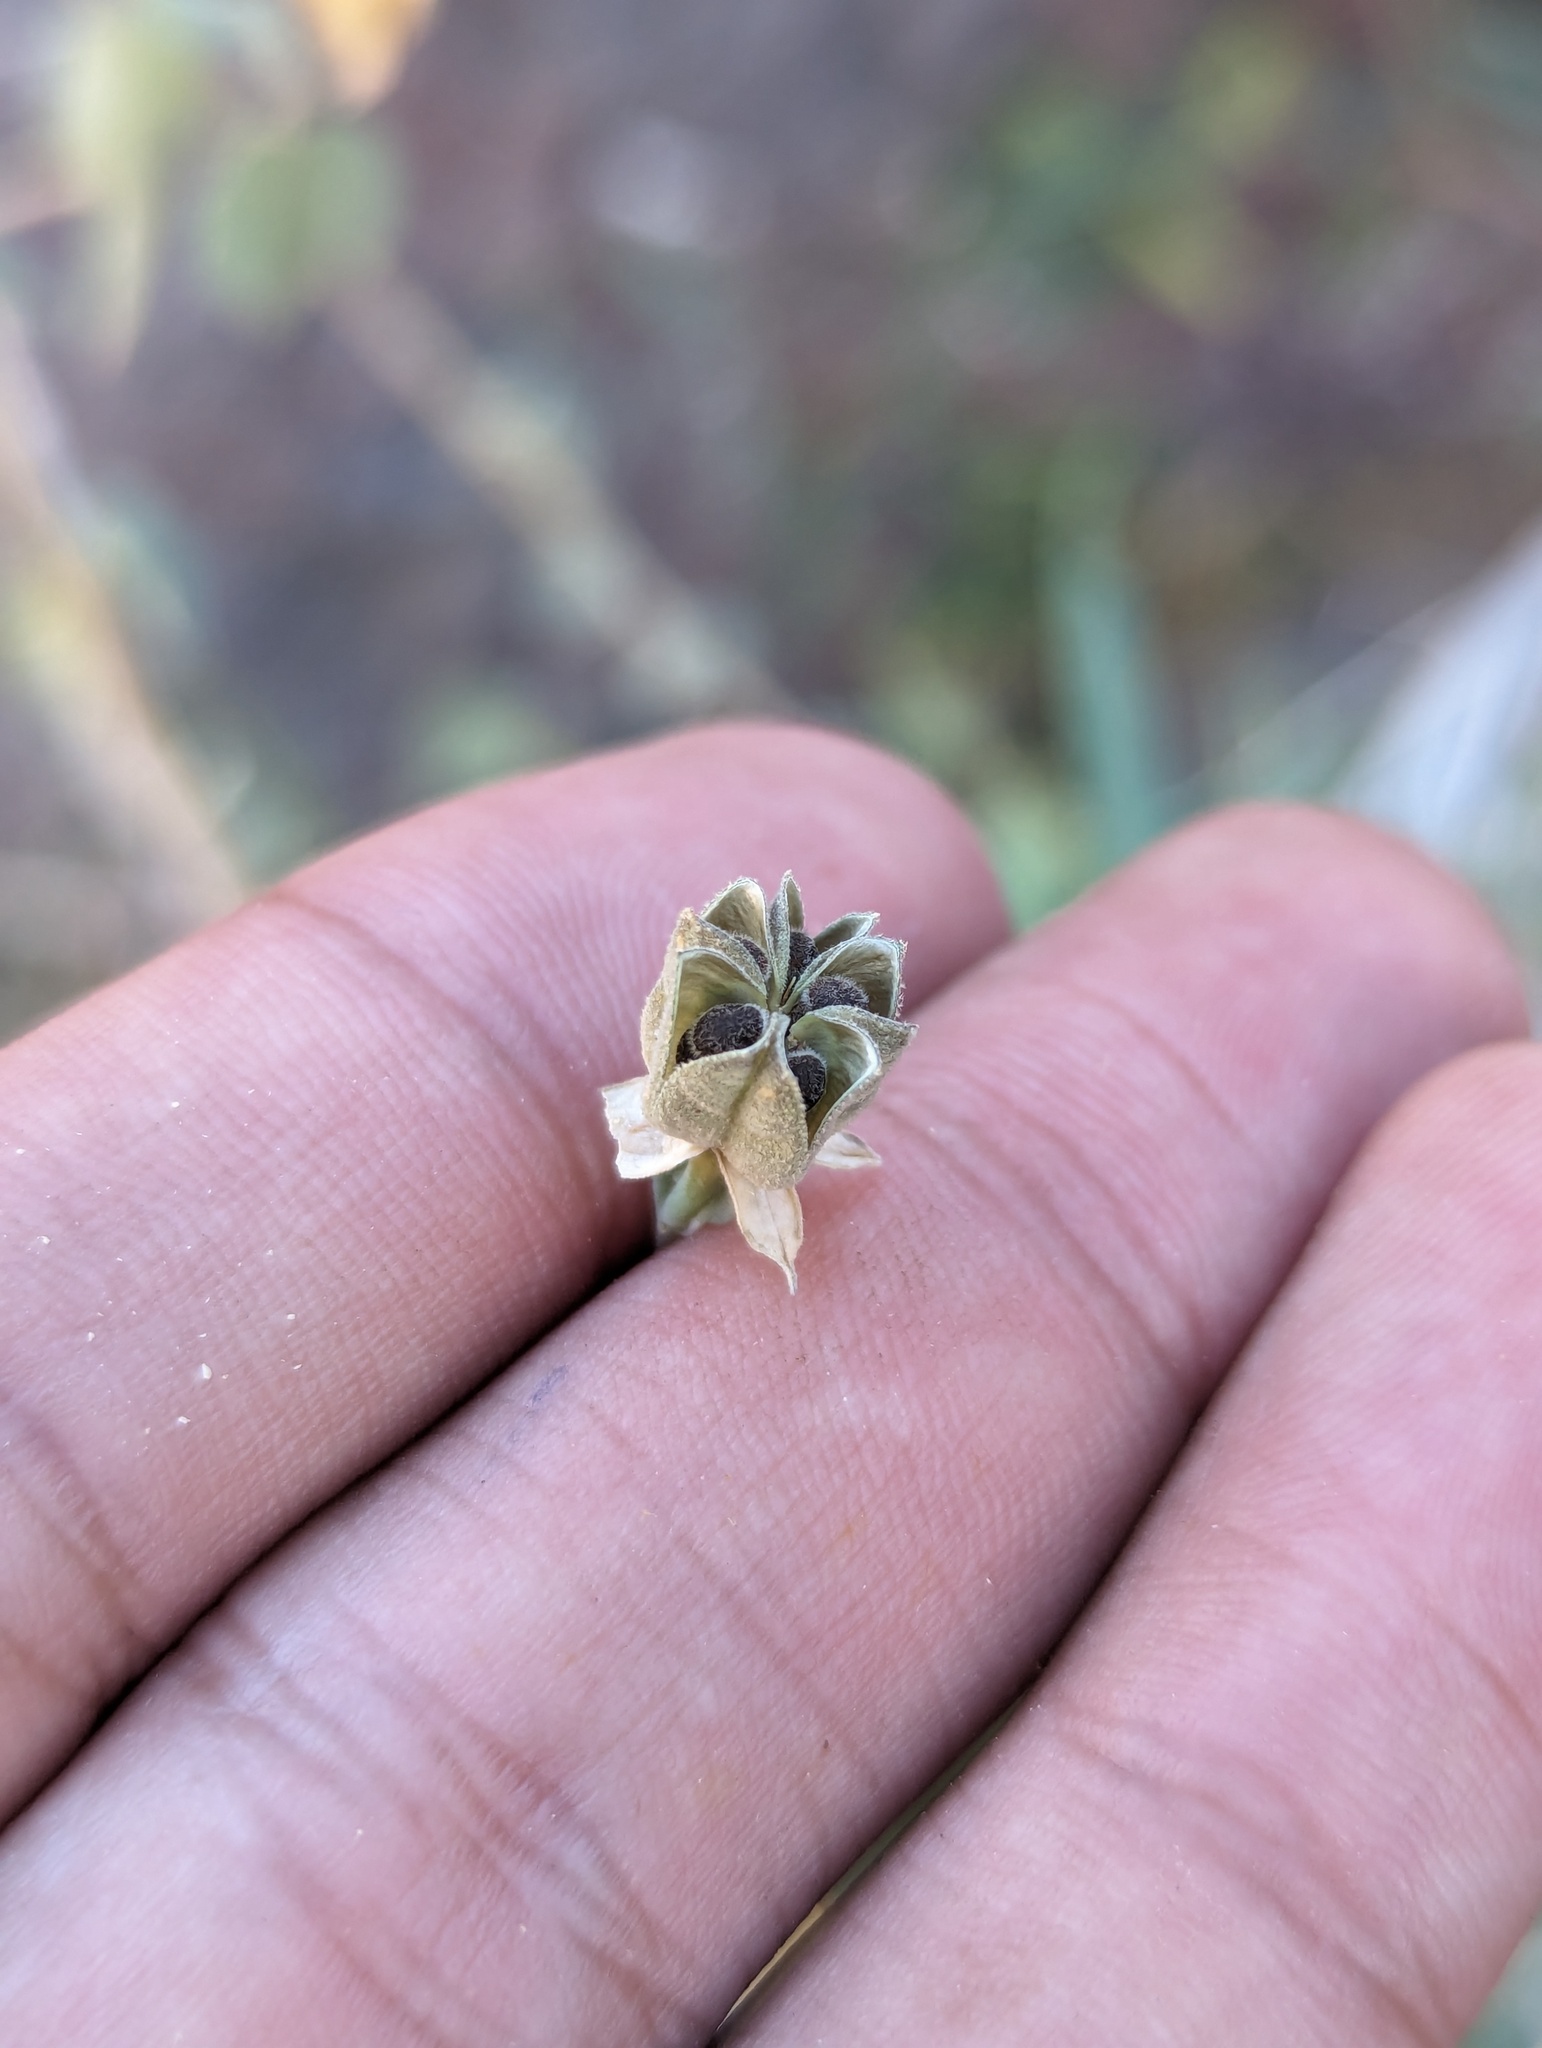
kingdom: Plantae
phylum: Tracheophyta
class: Magnoliopsida
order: Malvales
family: Malvaceae
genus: Abutilon
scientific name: Abutilon incanum
